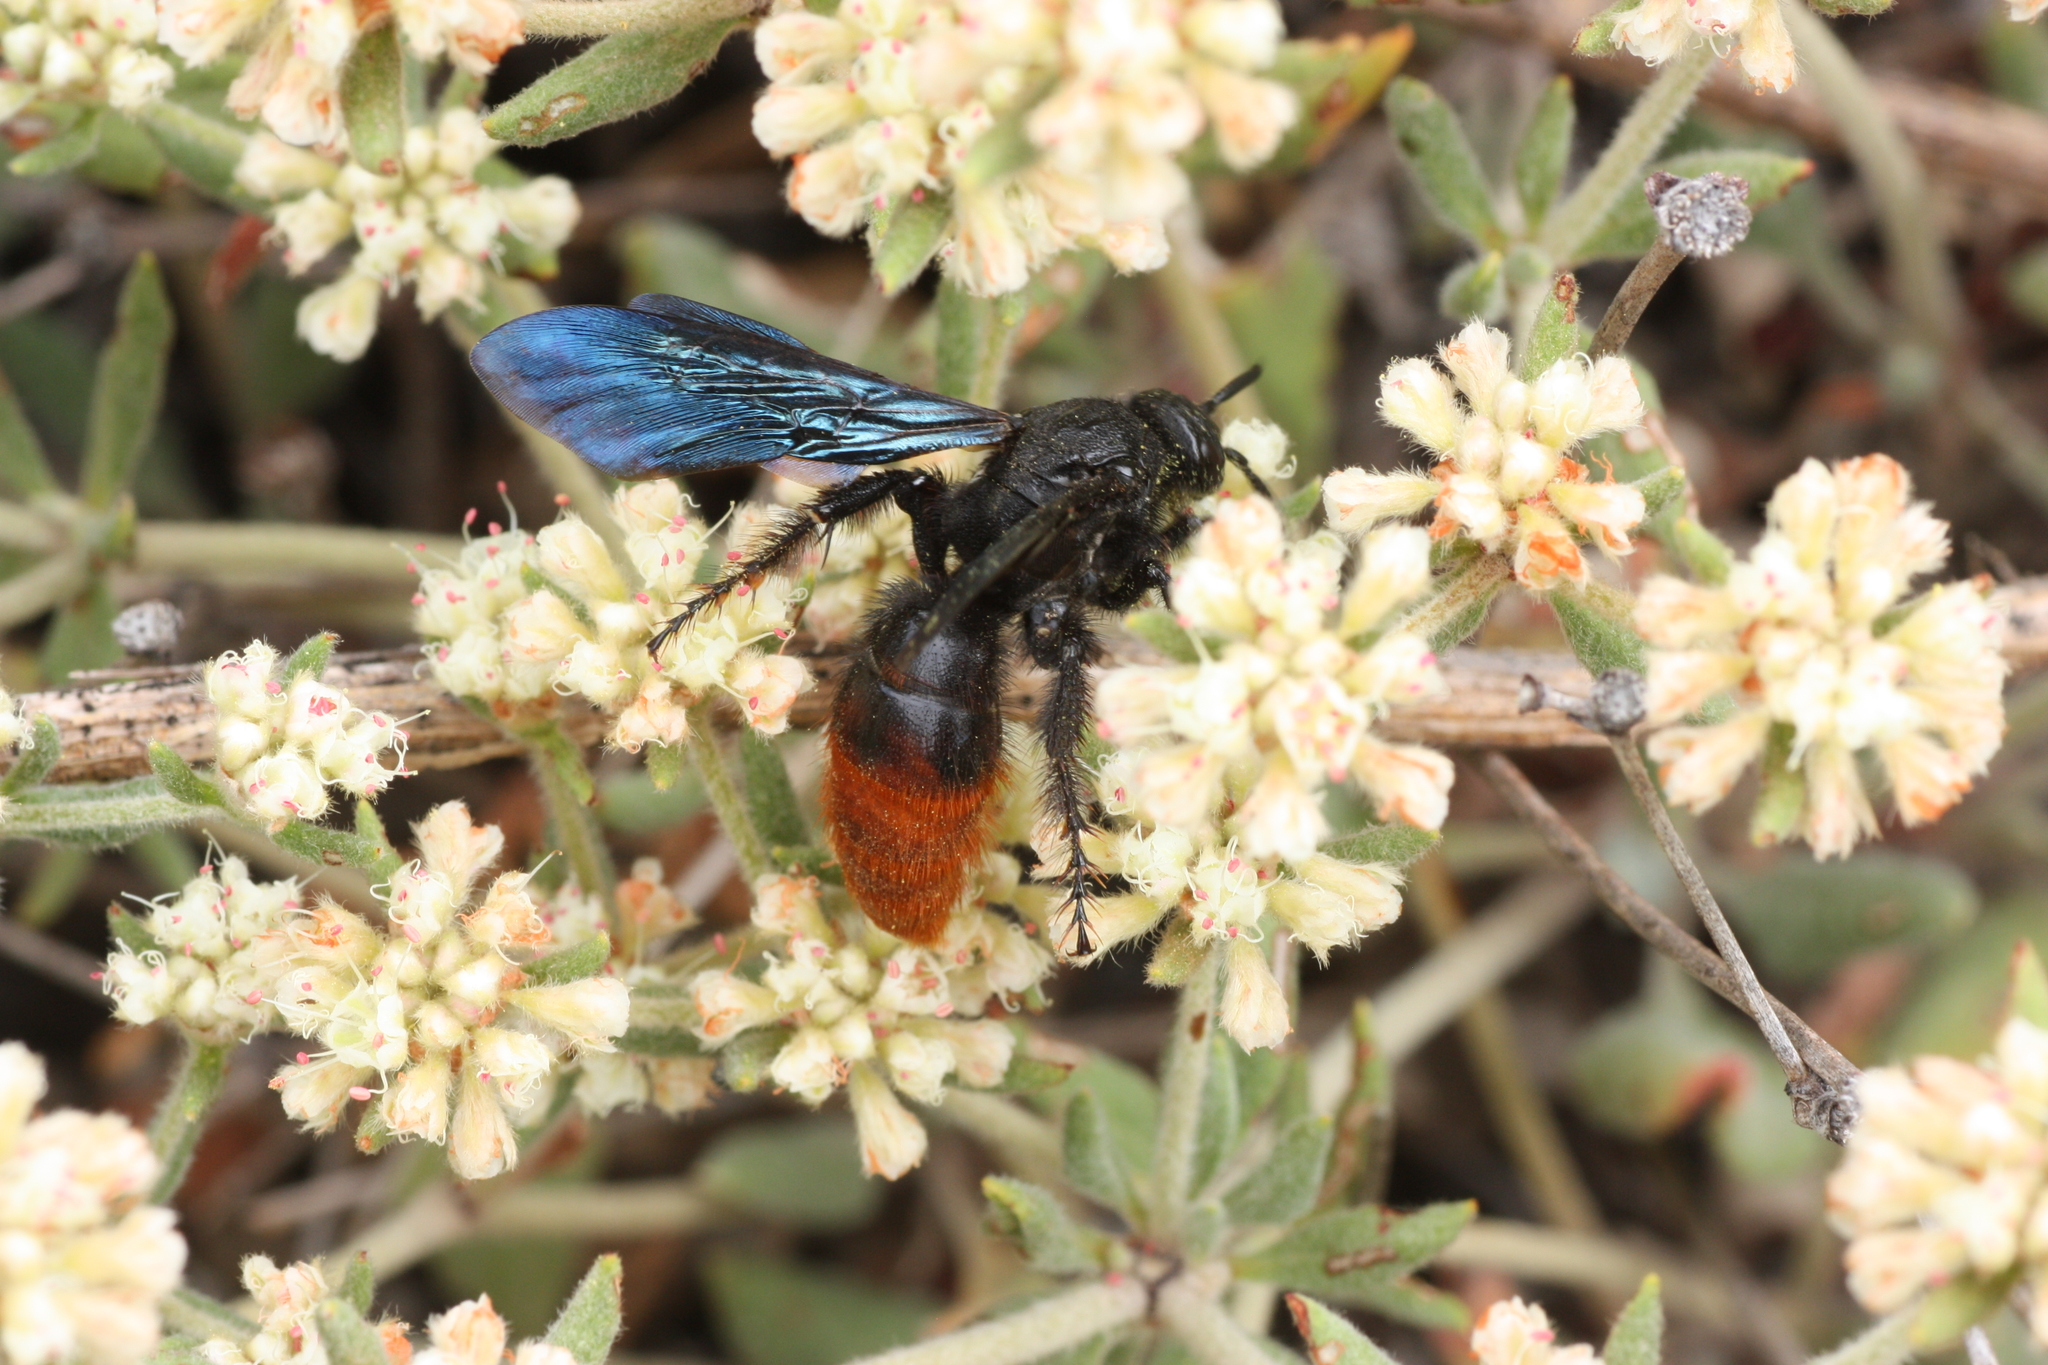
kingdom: Animalia
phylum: Arthropoda
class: Insecta
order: Hymenoptera
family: Scoliidae
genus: Triscolia
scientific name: Triscolia ardens
